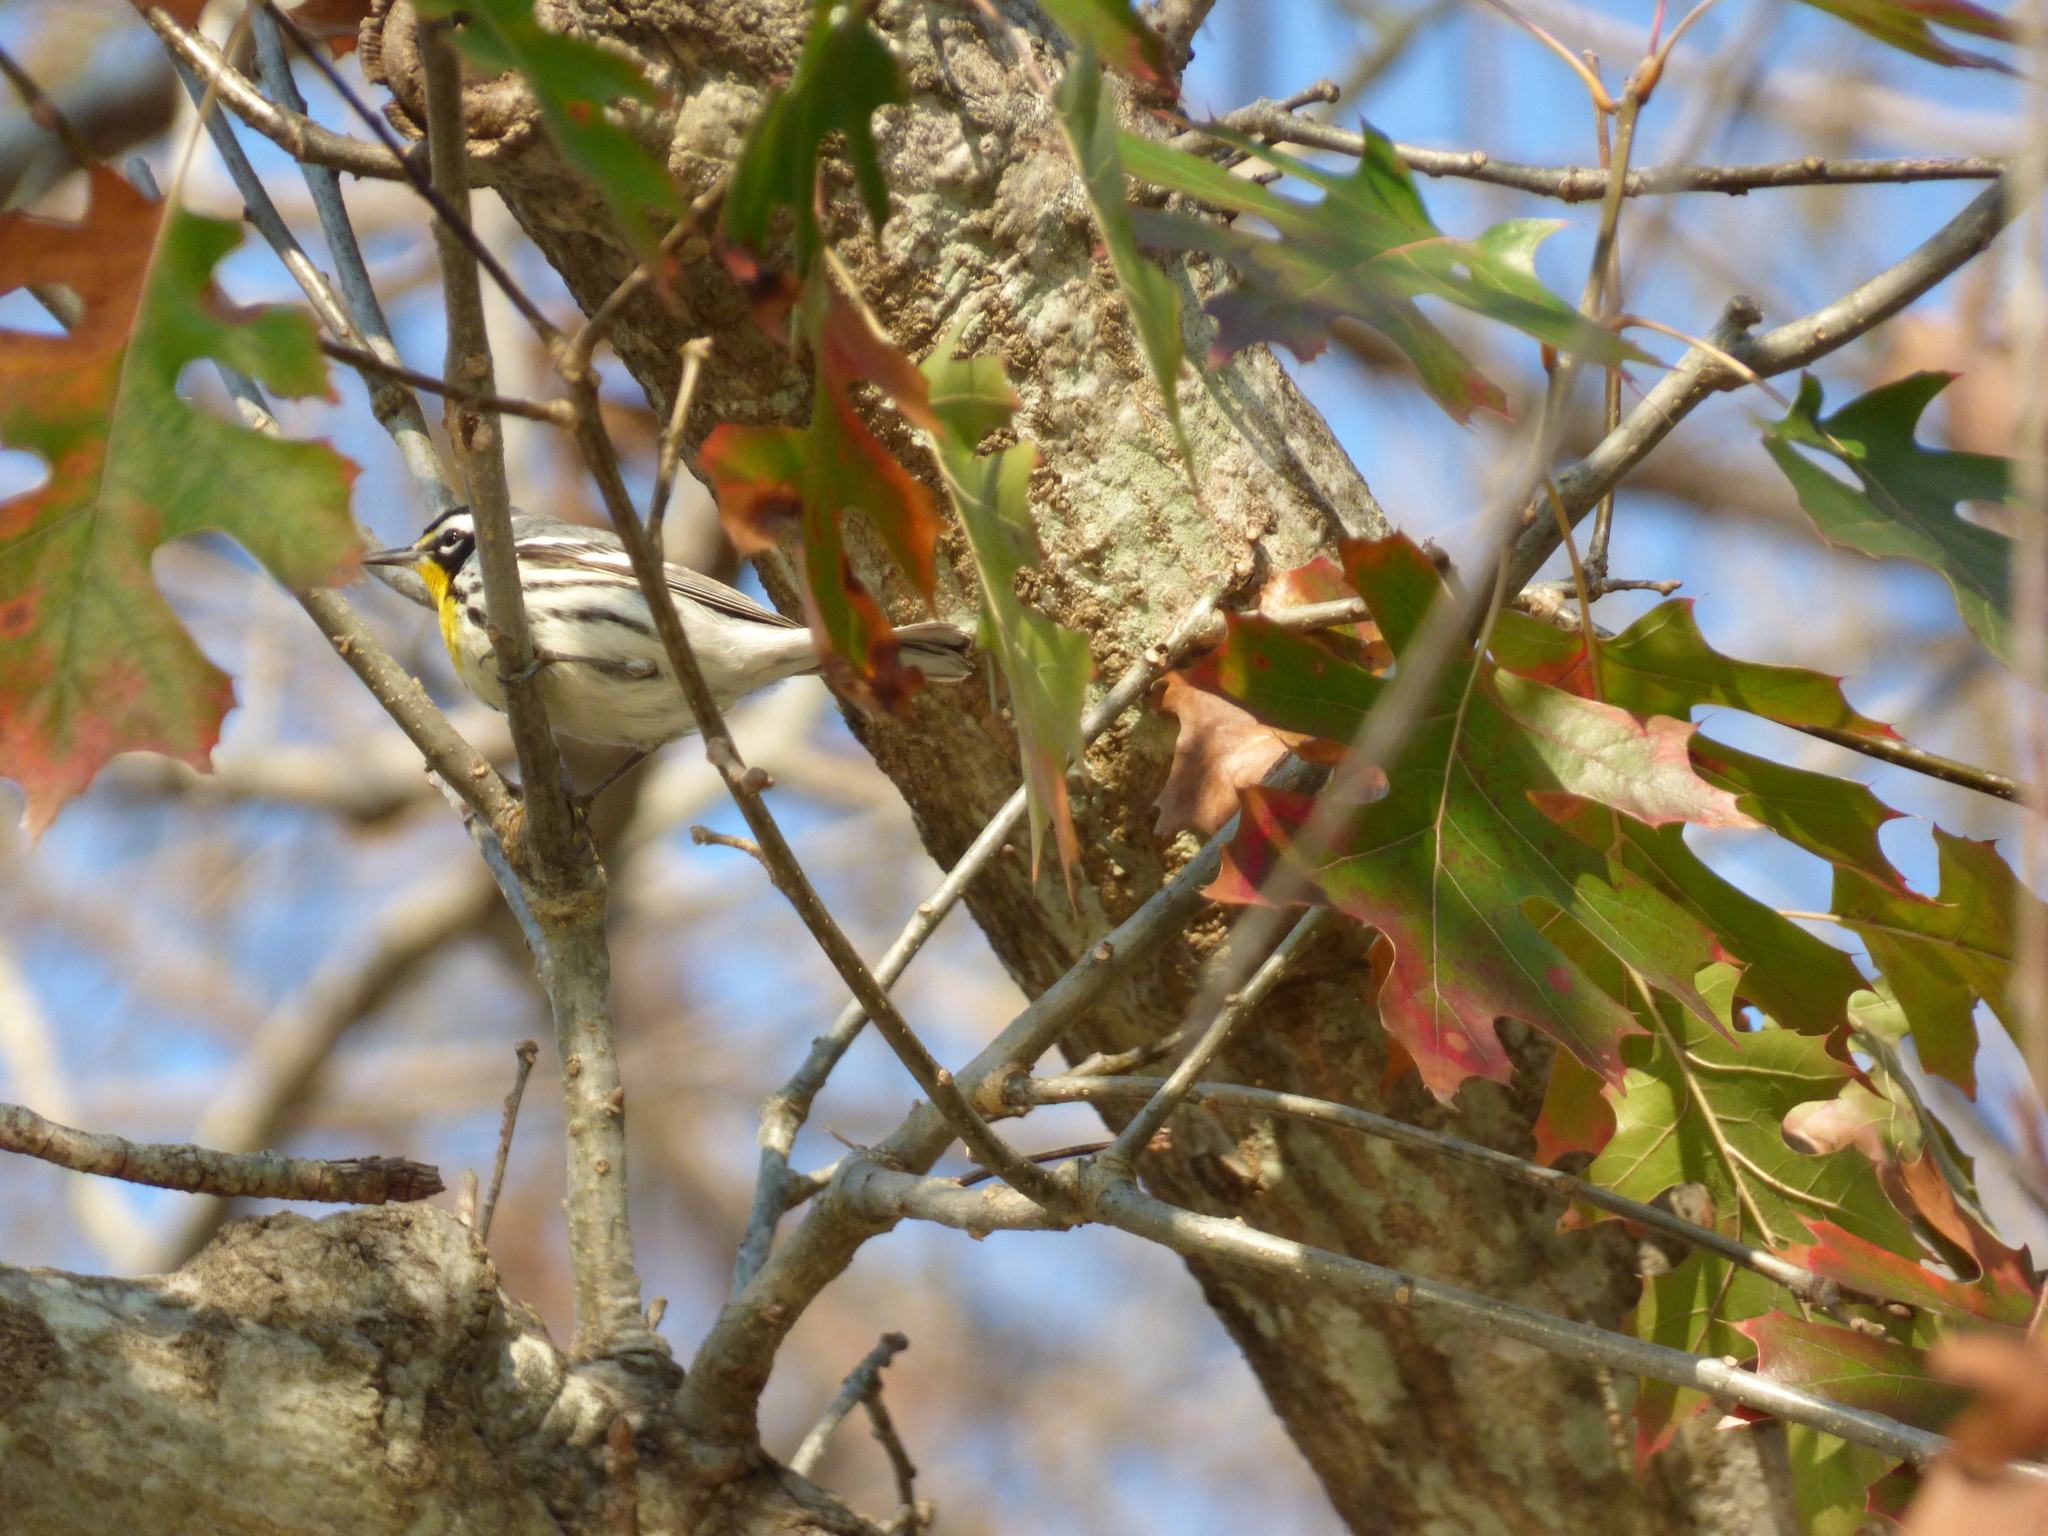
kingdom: Animalia
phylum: Chordata
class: Aves
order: Passeriformes
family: Parulidae
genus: Setophaga
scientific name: Setophaga dominica
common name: Yellow-throated warbler
